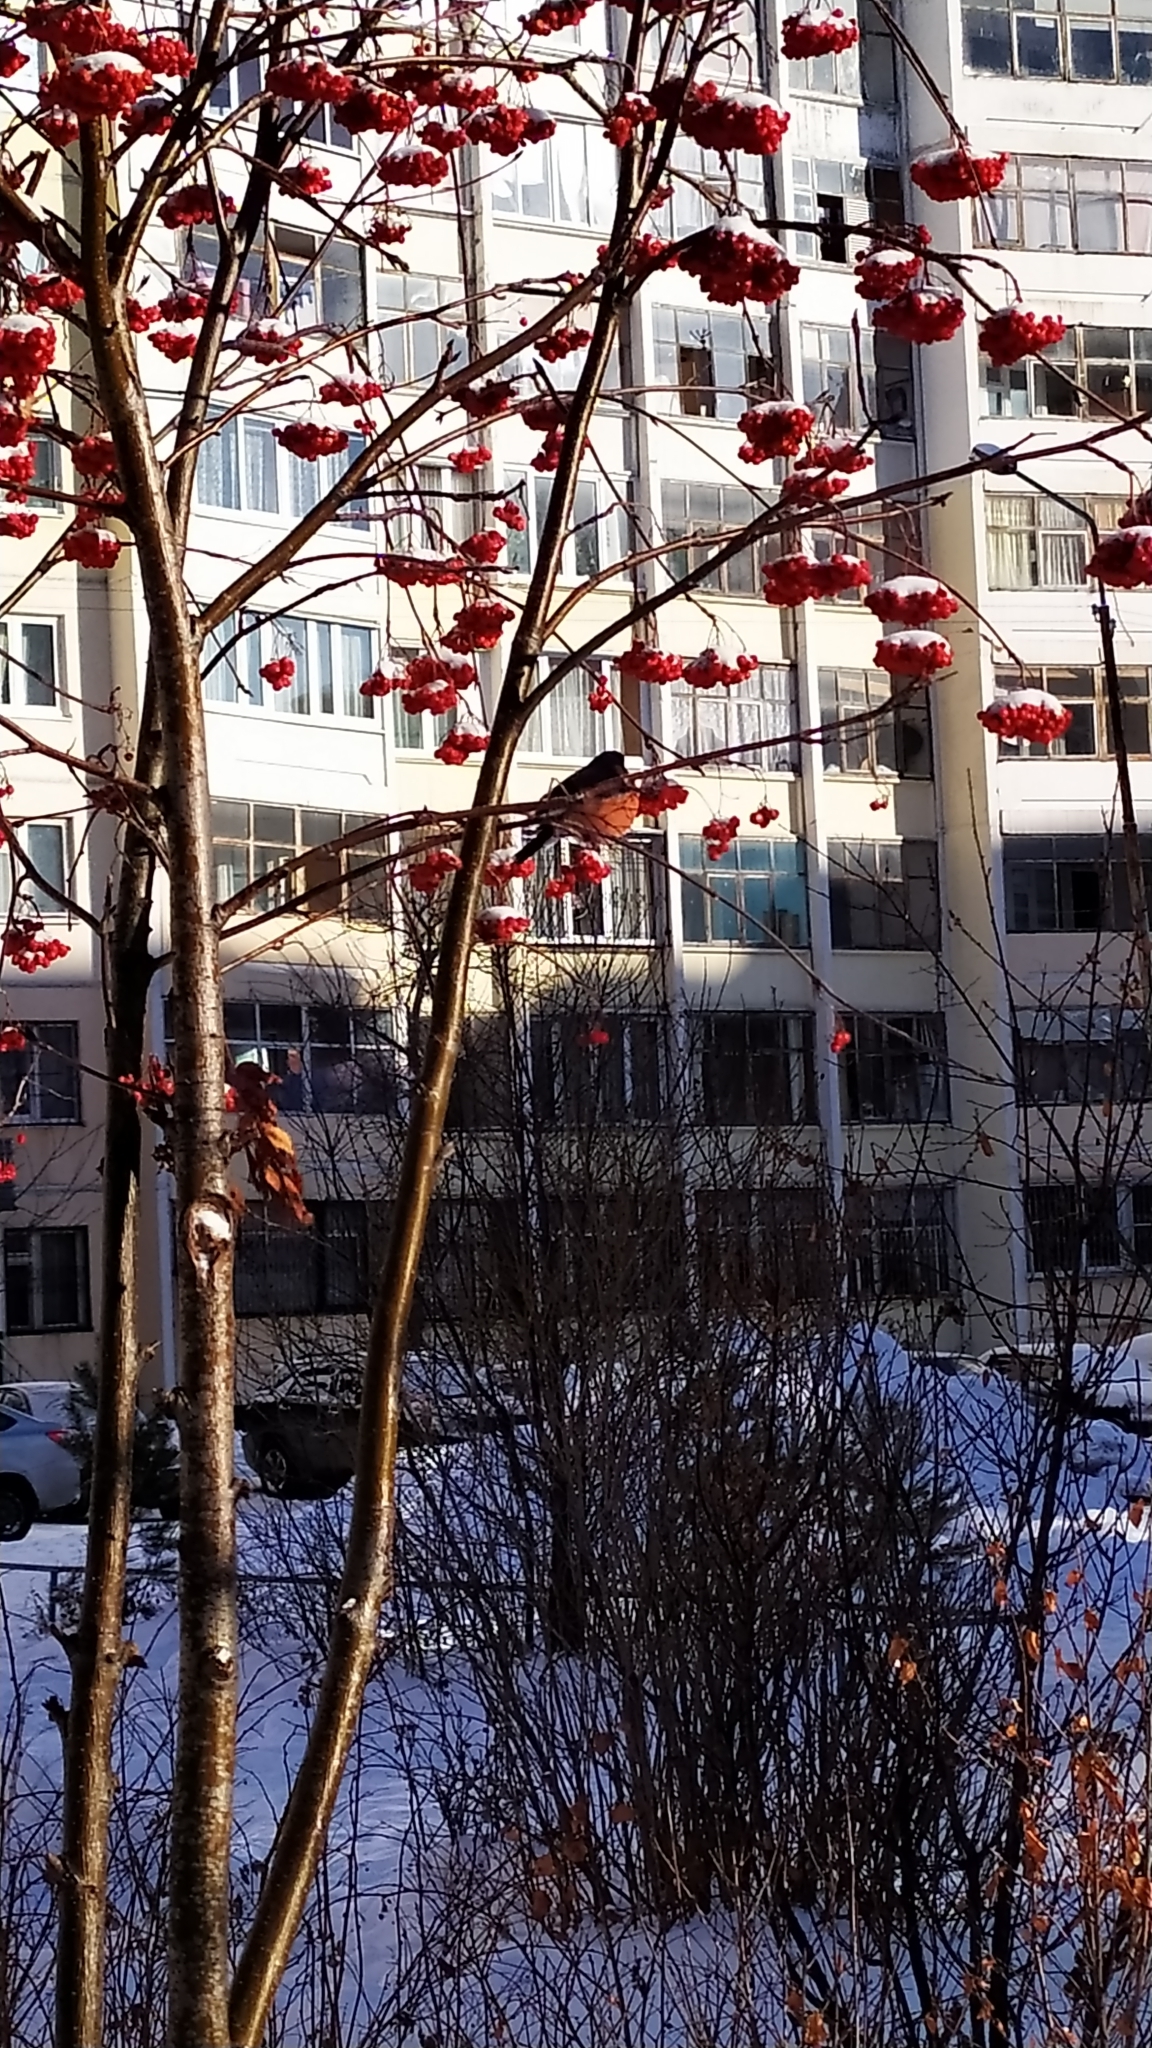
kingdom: Animalia
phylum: Chordata
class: Aves
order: Passeriformes
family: Fringillidae
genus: Pyrrhula
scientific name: Pyrrhula pyrrhula
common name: Eurasian bullfinch
